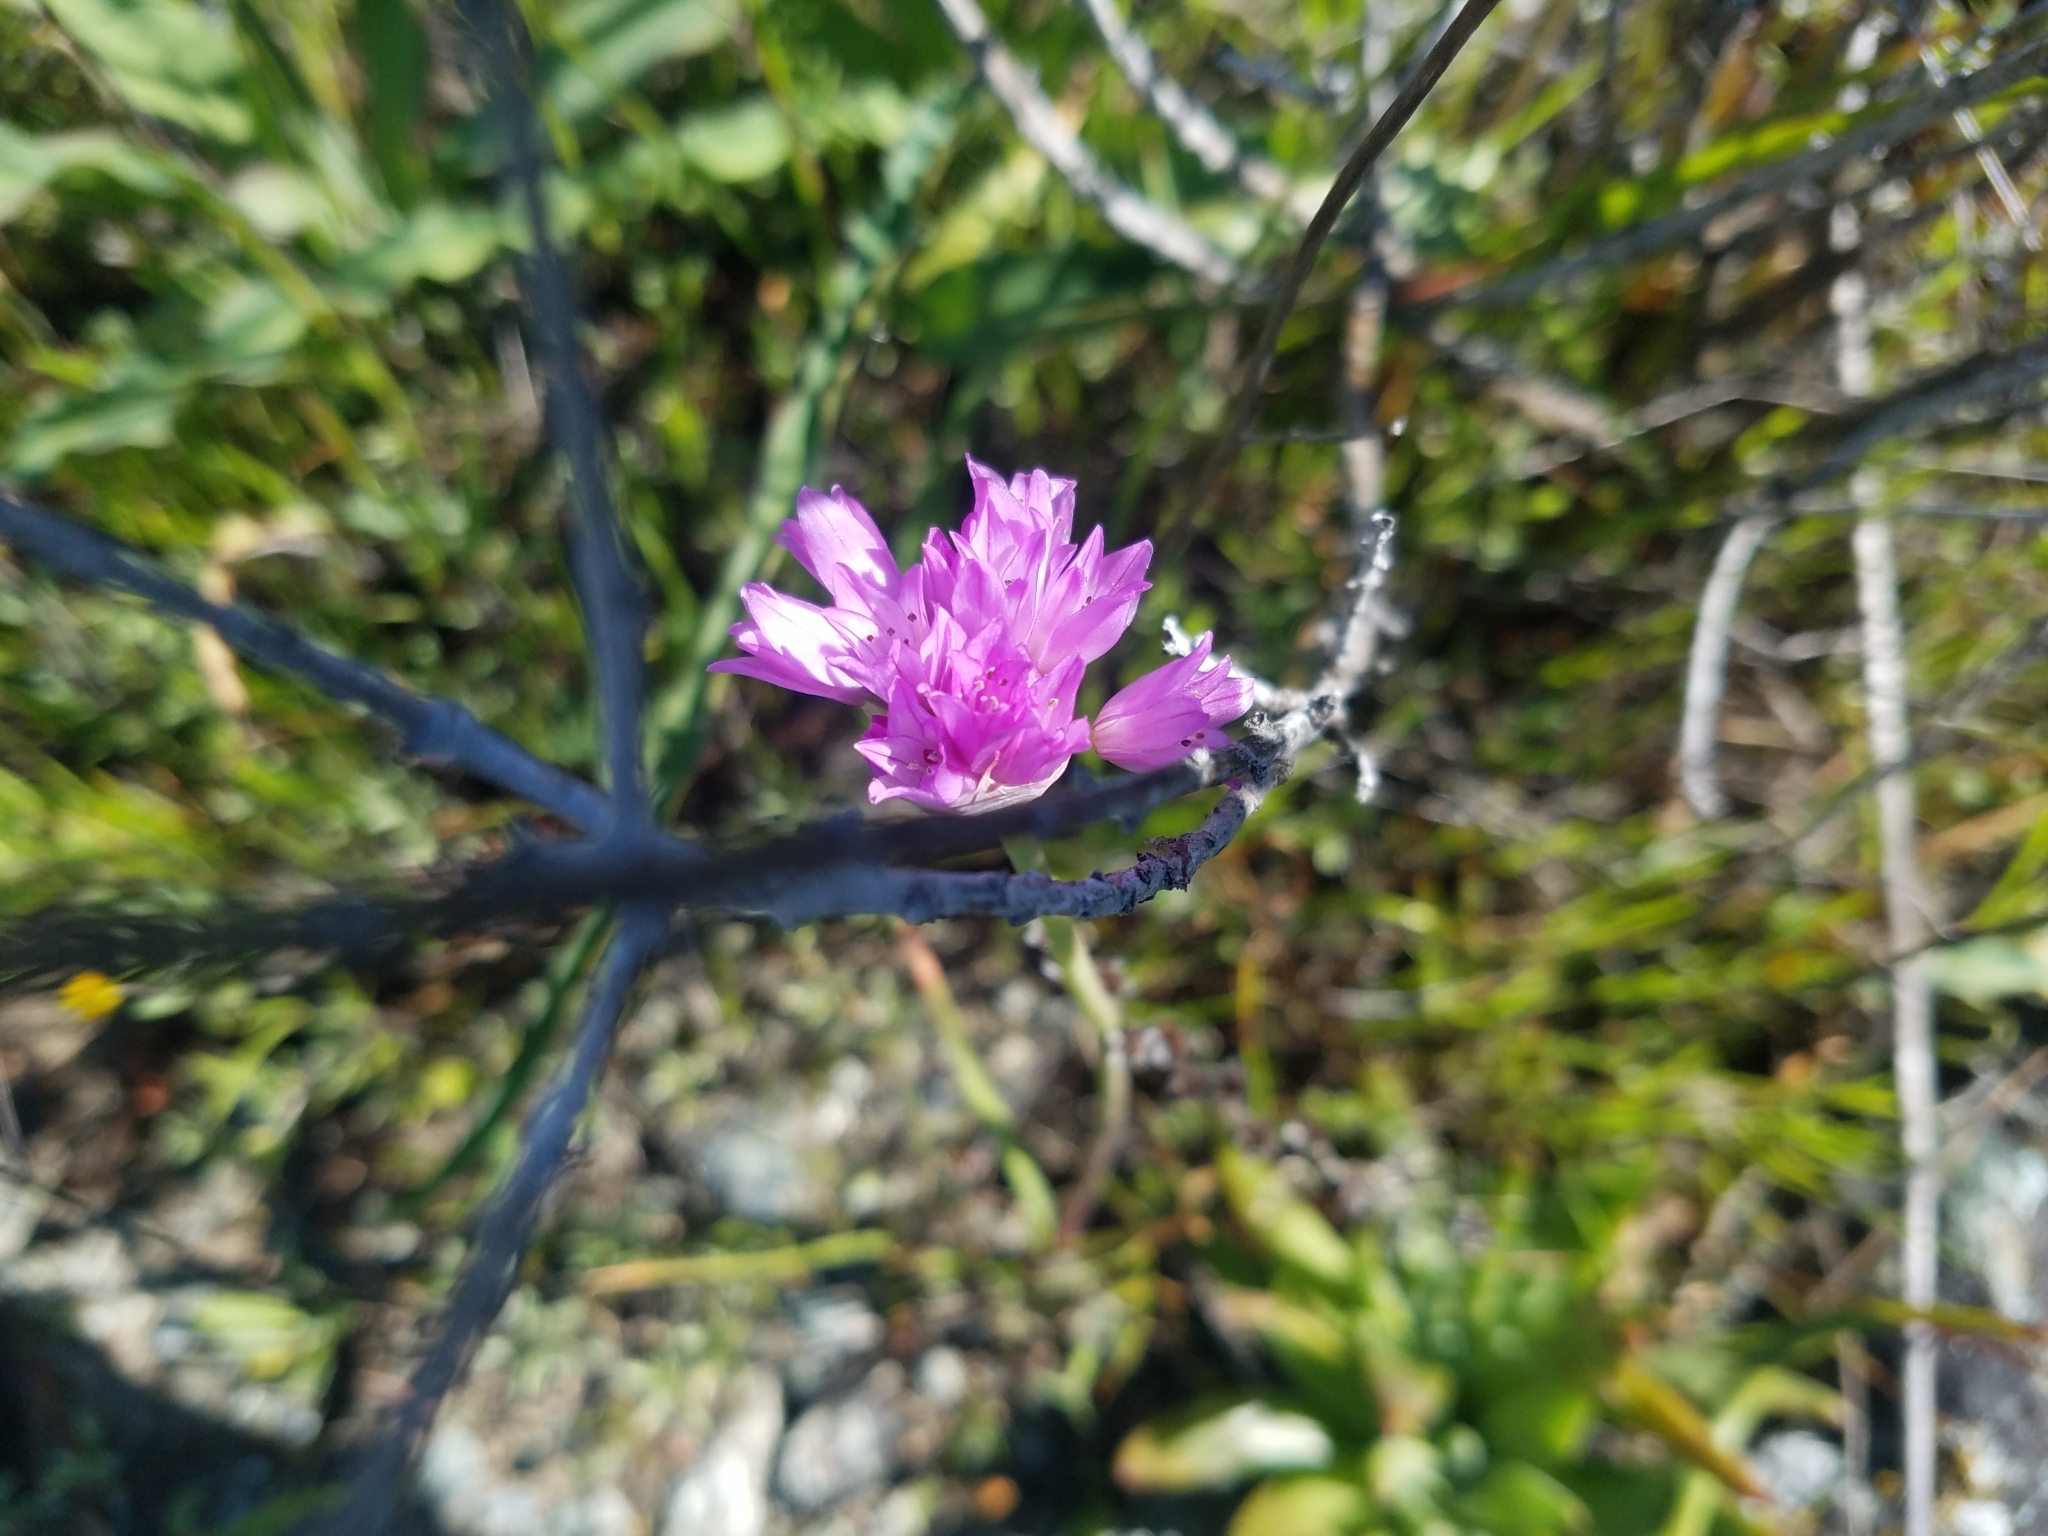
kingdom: Plantae
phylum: Tracheophyta
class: Liliopsida
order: Asparagales
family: Amaryllidaceae
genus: Allium
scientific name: Allium serra
